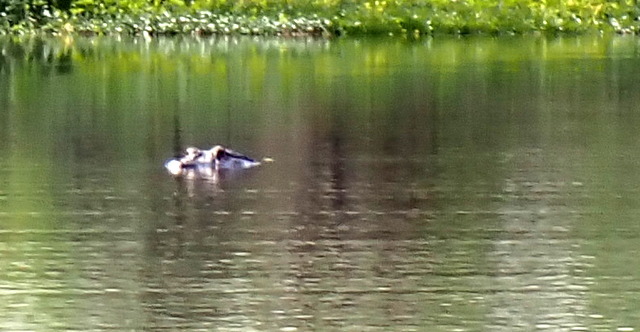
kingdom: Animalia
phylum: Chordata
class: Crocodylia
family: Alligatoridae
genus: Alligator
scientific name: Alligator mississippiensis
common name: American alligator
